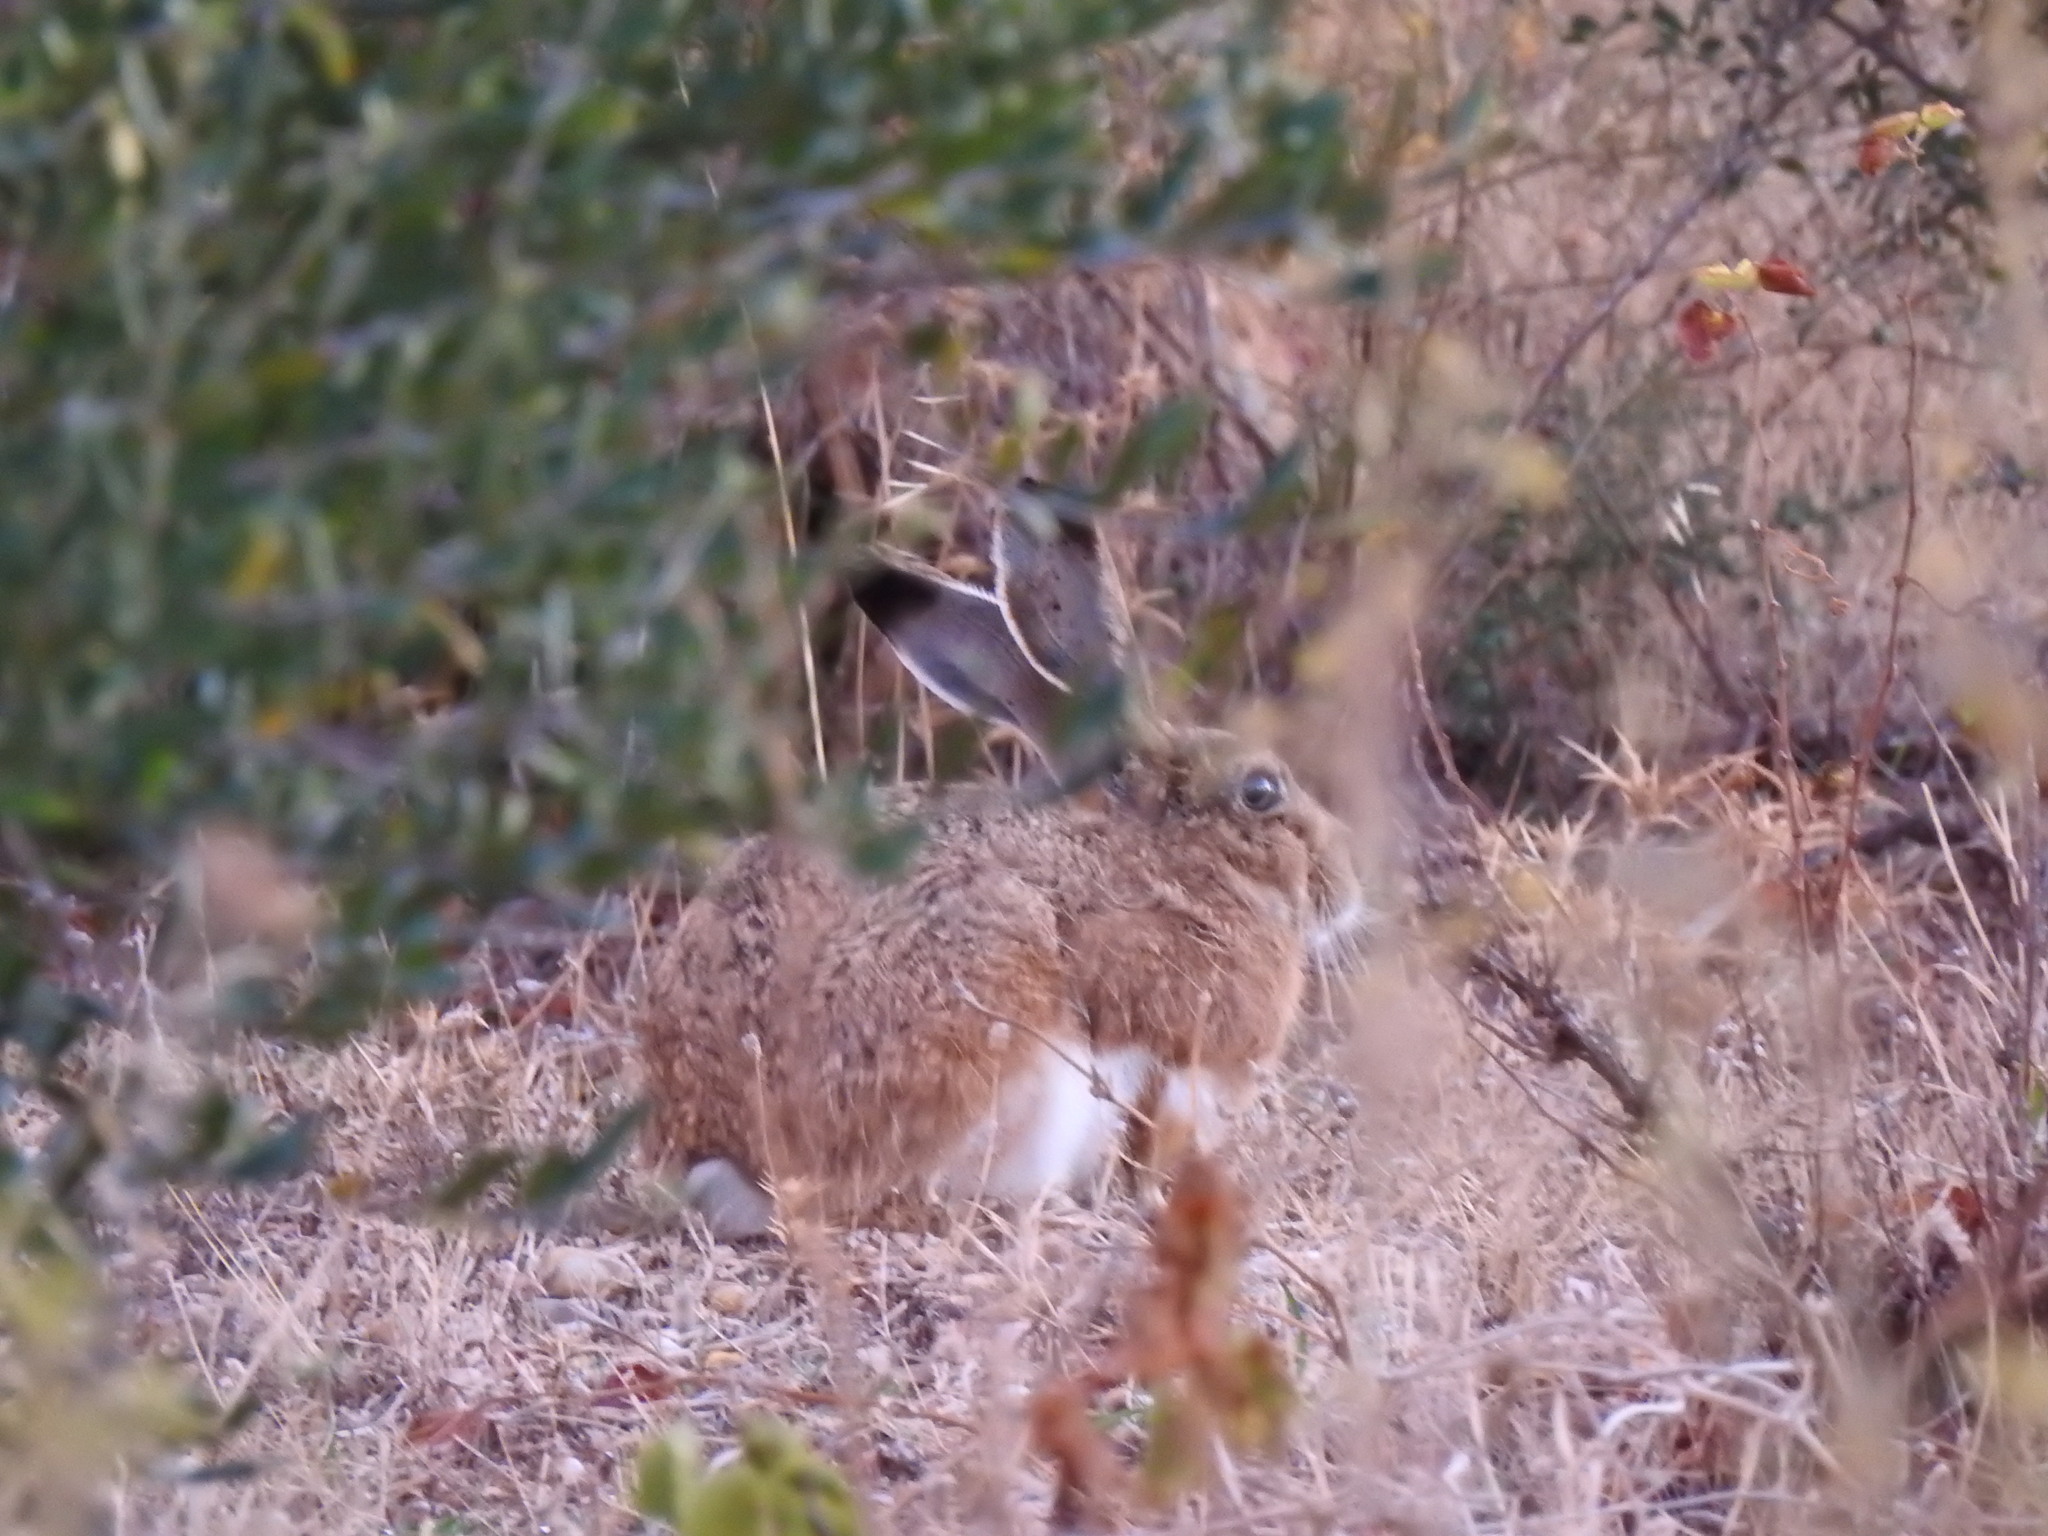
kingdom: Animalia
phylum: Chordata
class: Mammalia
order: Lagomorpha
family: Leporidae
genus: Lepus
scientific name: Lepus granatensis
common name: Granada hare
